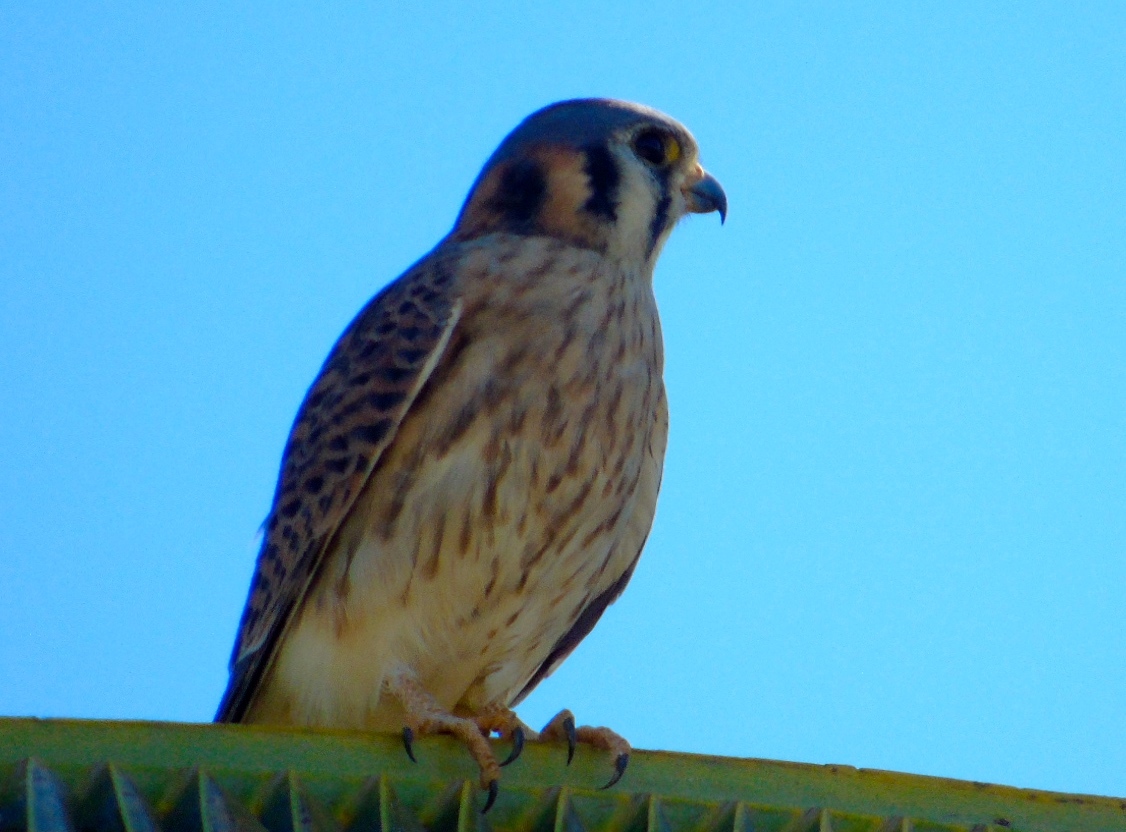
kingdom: Animalia
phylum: Chordata
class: Aves
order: Falconiformes
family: Falconidae
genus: Falco
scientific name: Falco sparverius
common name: American kestrel
